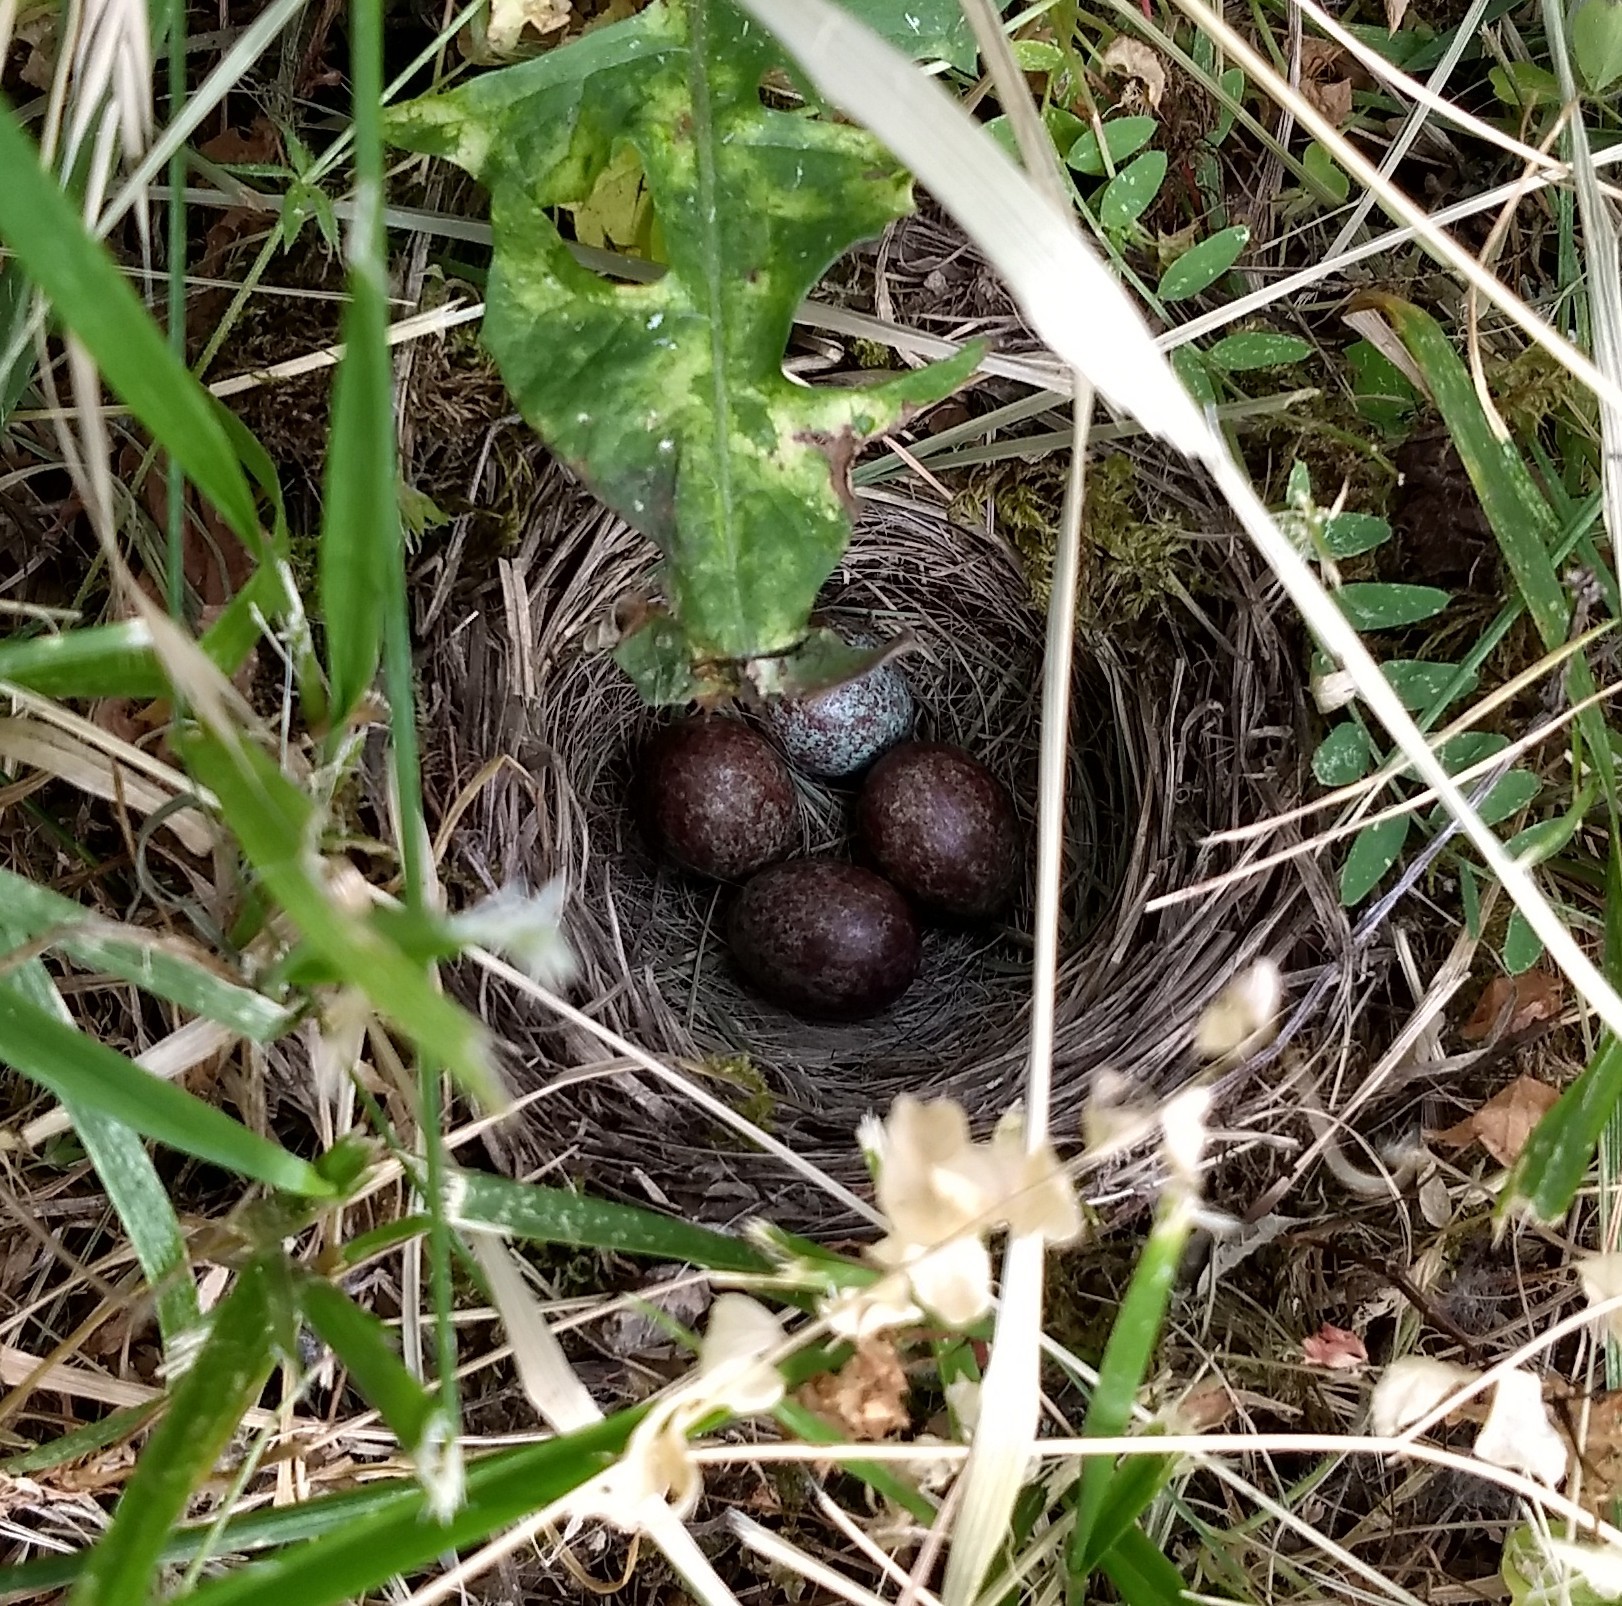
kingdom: Animalia
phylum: Chordata
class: Aves
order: Passeriformes
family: Passerellidae
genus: Zonotrichia
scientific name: Zonotrichia leucophrys
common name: White-crowned sparrow
